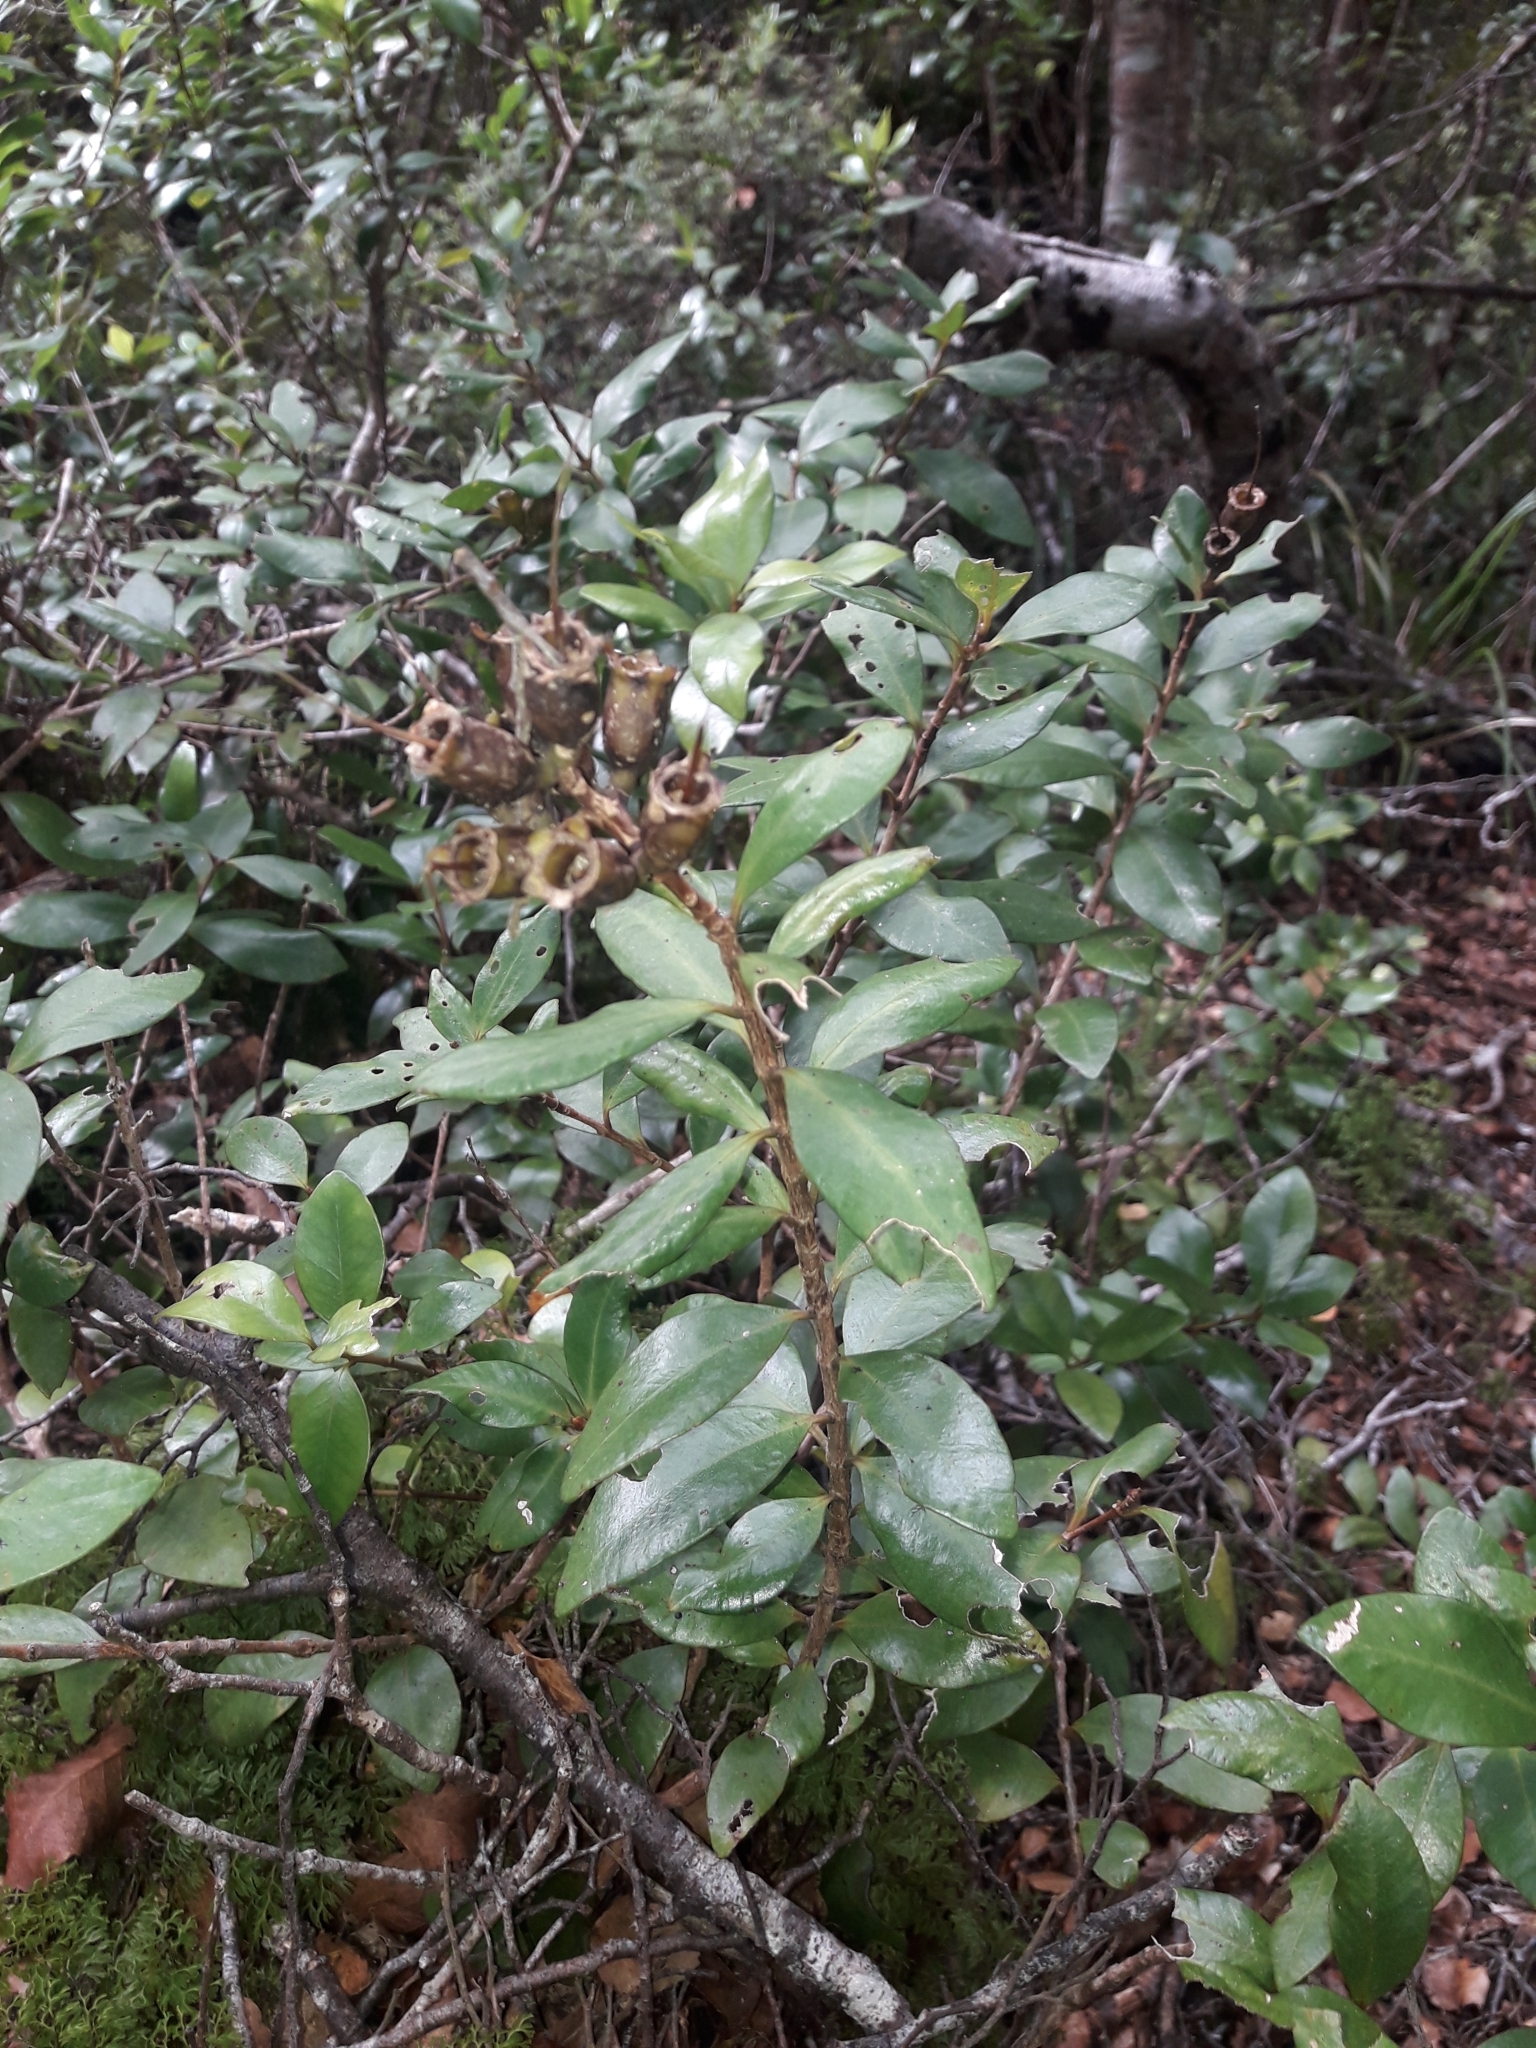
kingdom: Plantae
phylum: Tracheophyta
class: Magnoliopsida
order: Myrtales
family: Myrtaceae
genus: Metrosideros
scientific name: Metrosideros fulgens
